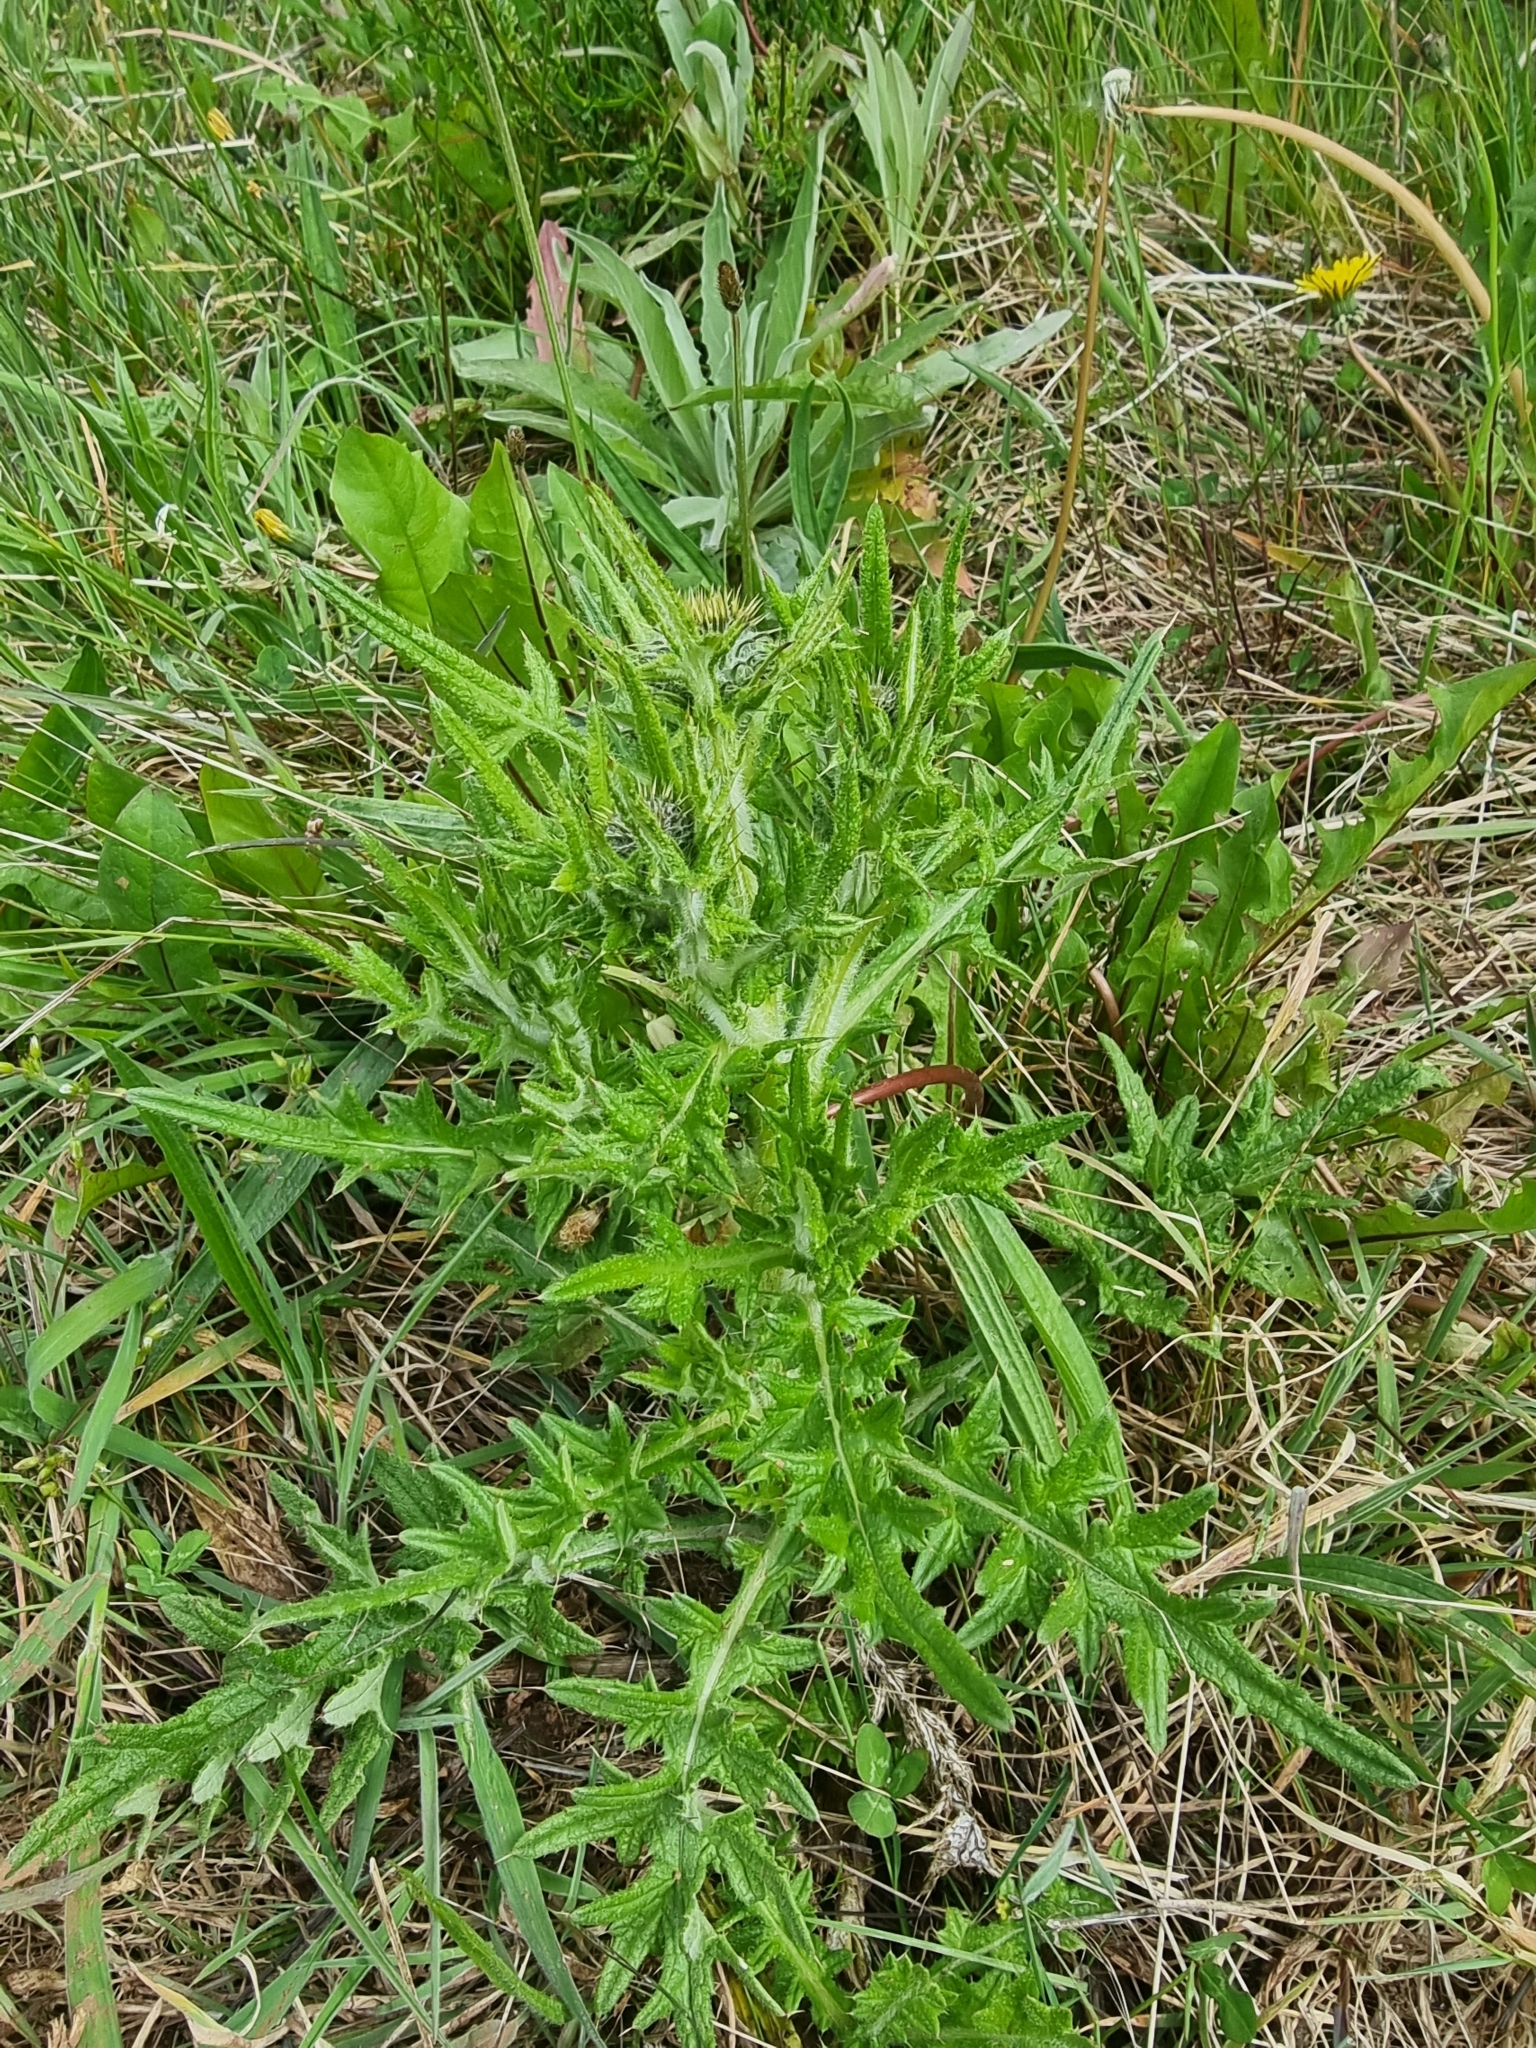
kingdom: Plantae
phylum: Tracheophyta
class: Magnoliopsida
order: Asterales
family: Asteraceae
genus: Cirsium
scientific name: Cirsium vulgare
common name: Bull thistle
